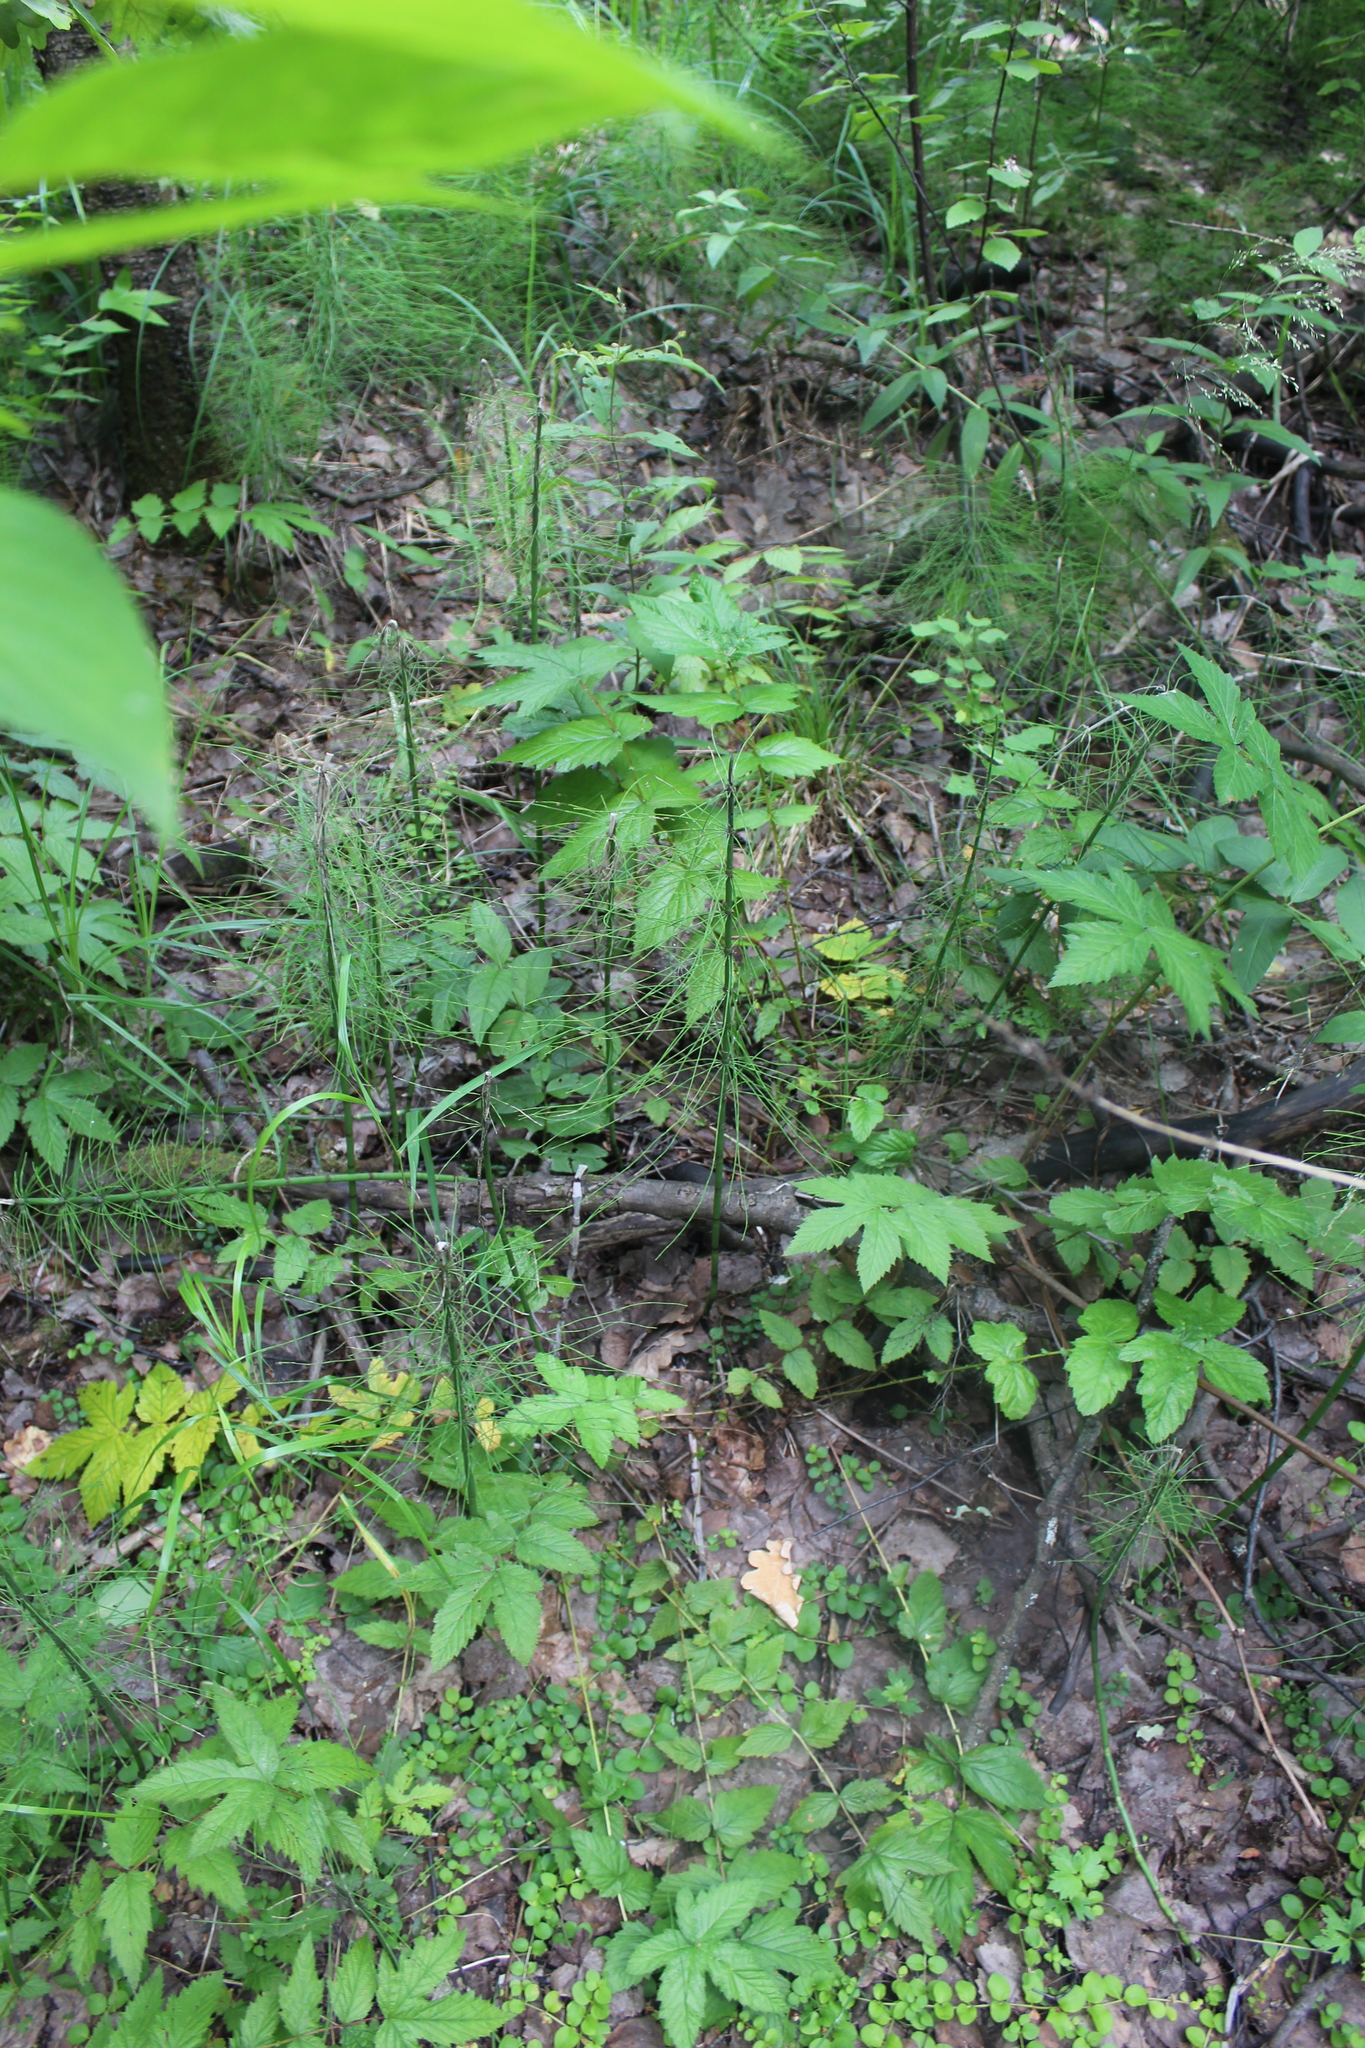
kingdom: Plantae
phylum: Tracheophyta
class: Polypodiopsida
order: Equisetales
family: Equisetaceae
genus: Equisetum
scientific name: Equisetum fluviatile
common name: Water horsetail
